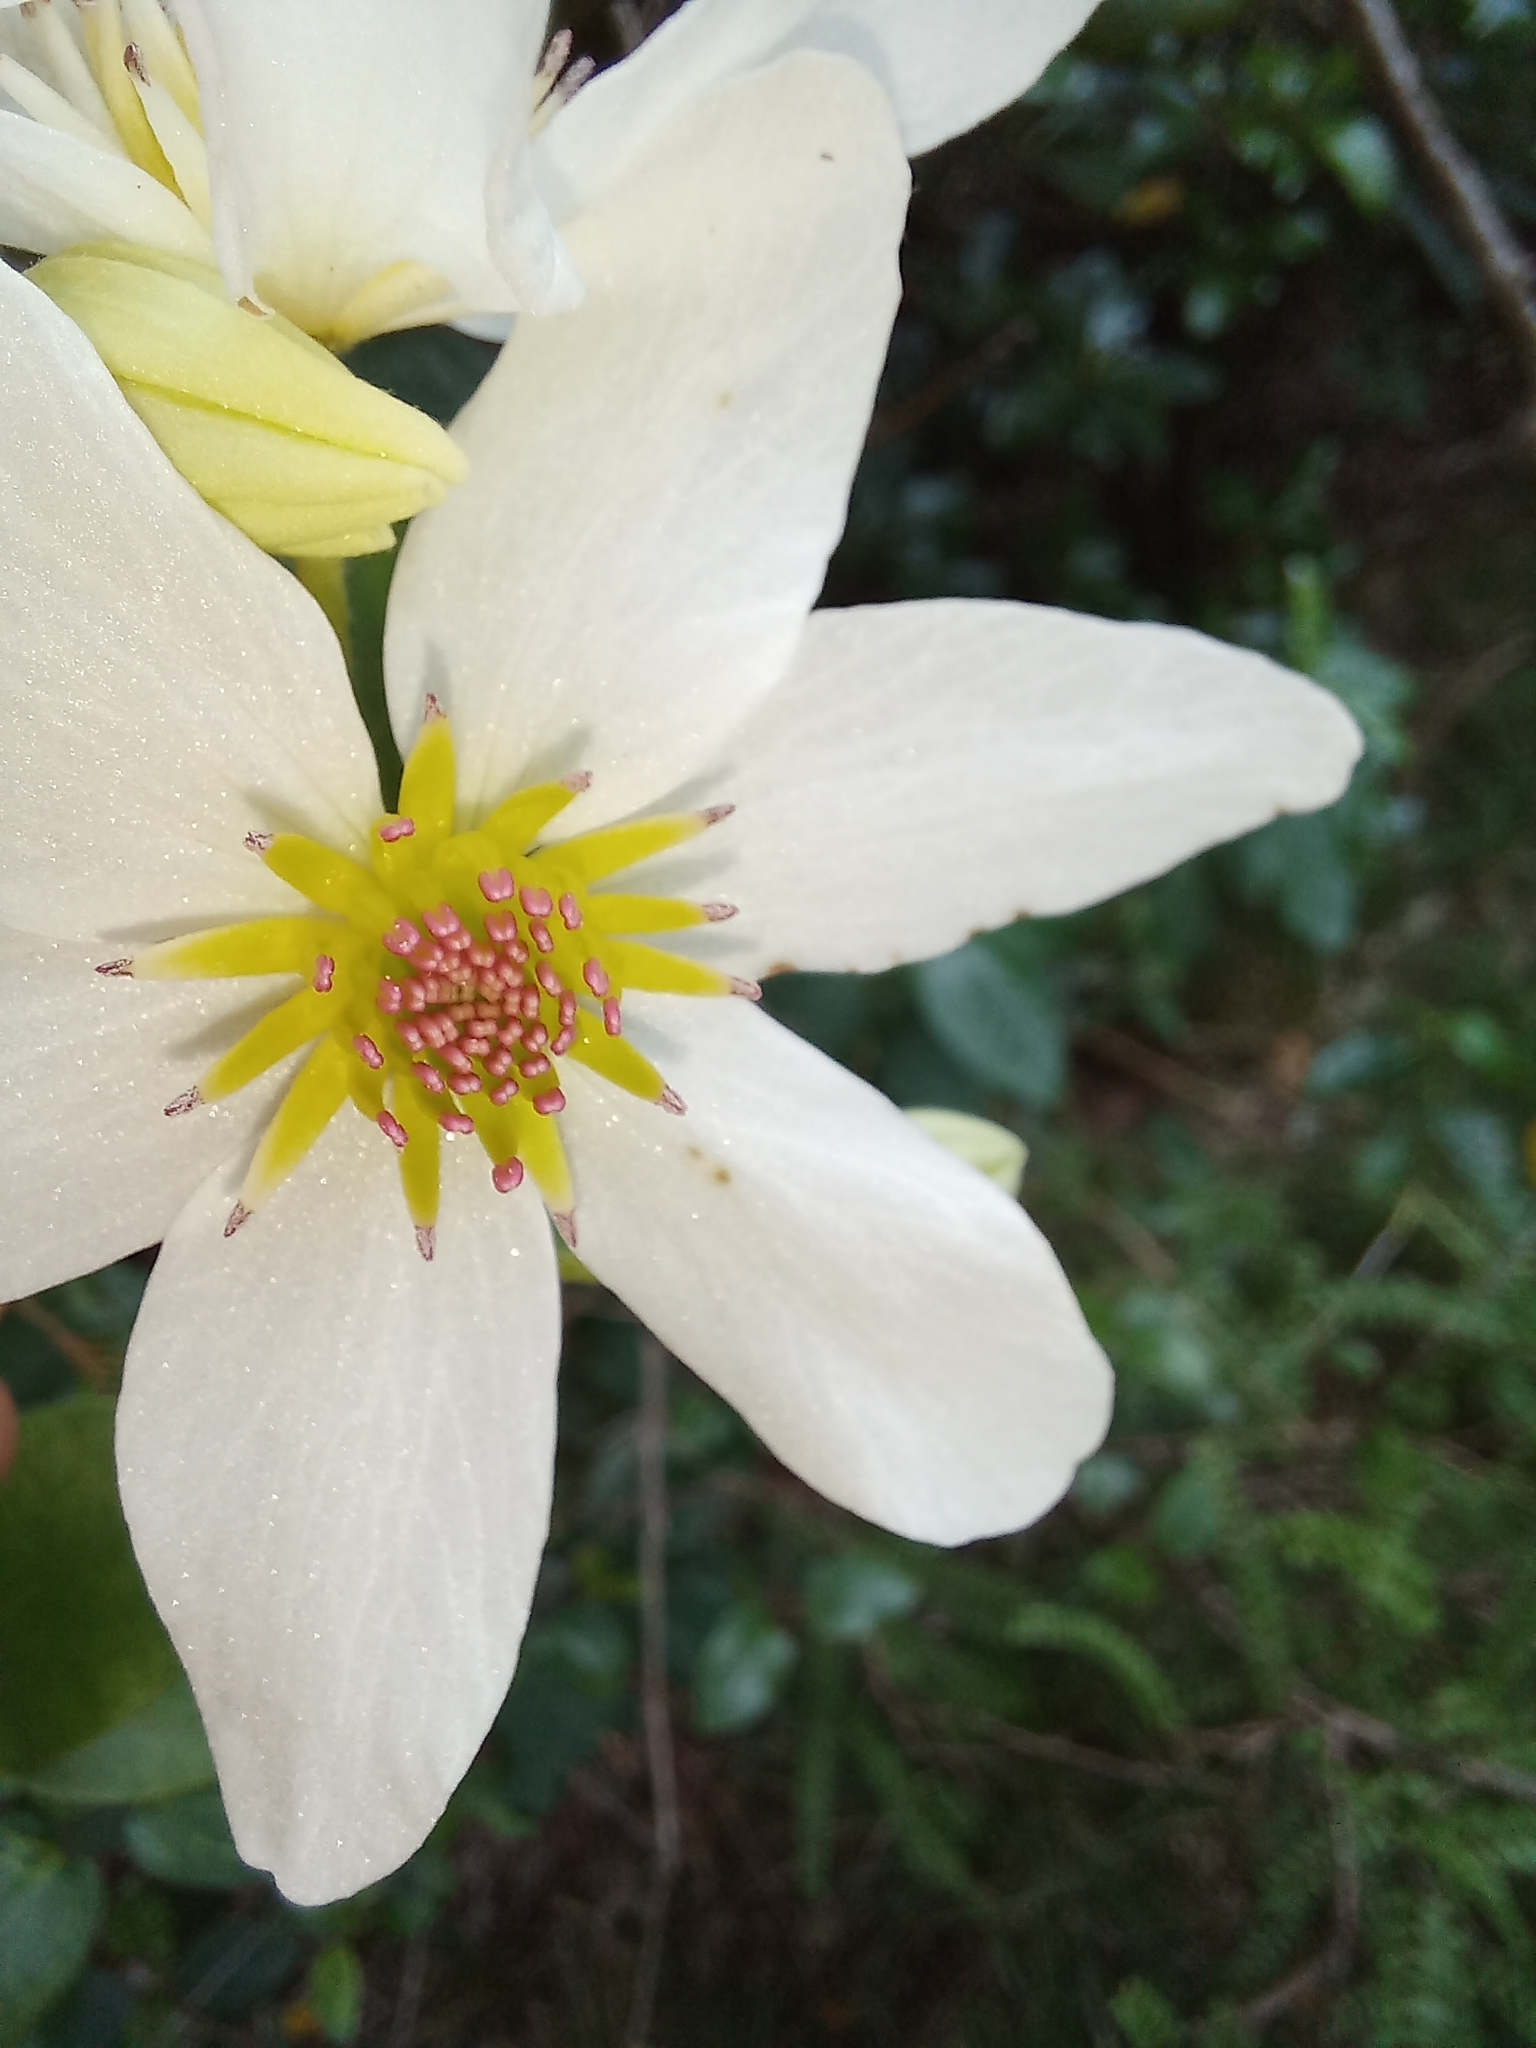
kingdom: Plantae
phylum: Tracheophyta
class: Magnoliopsida
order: Ranunculales
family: Ranunculaceae
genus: Clematis
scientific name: Clematis paniculata
